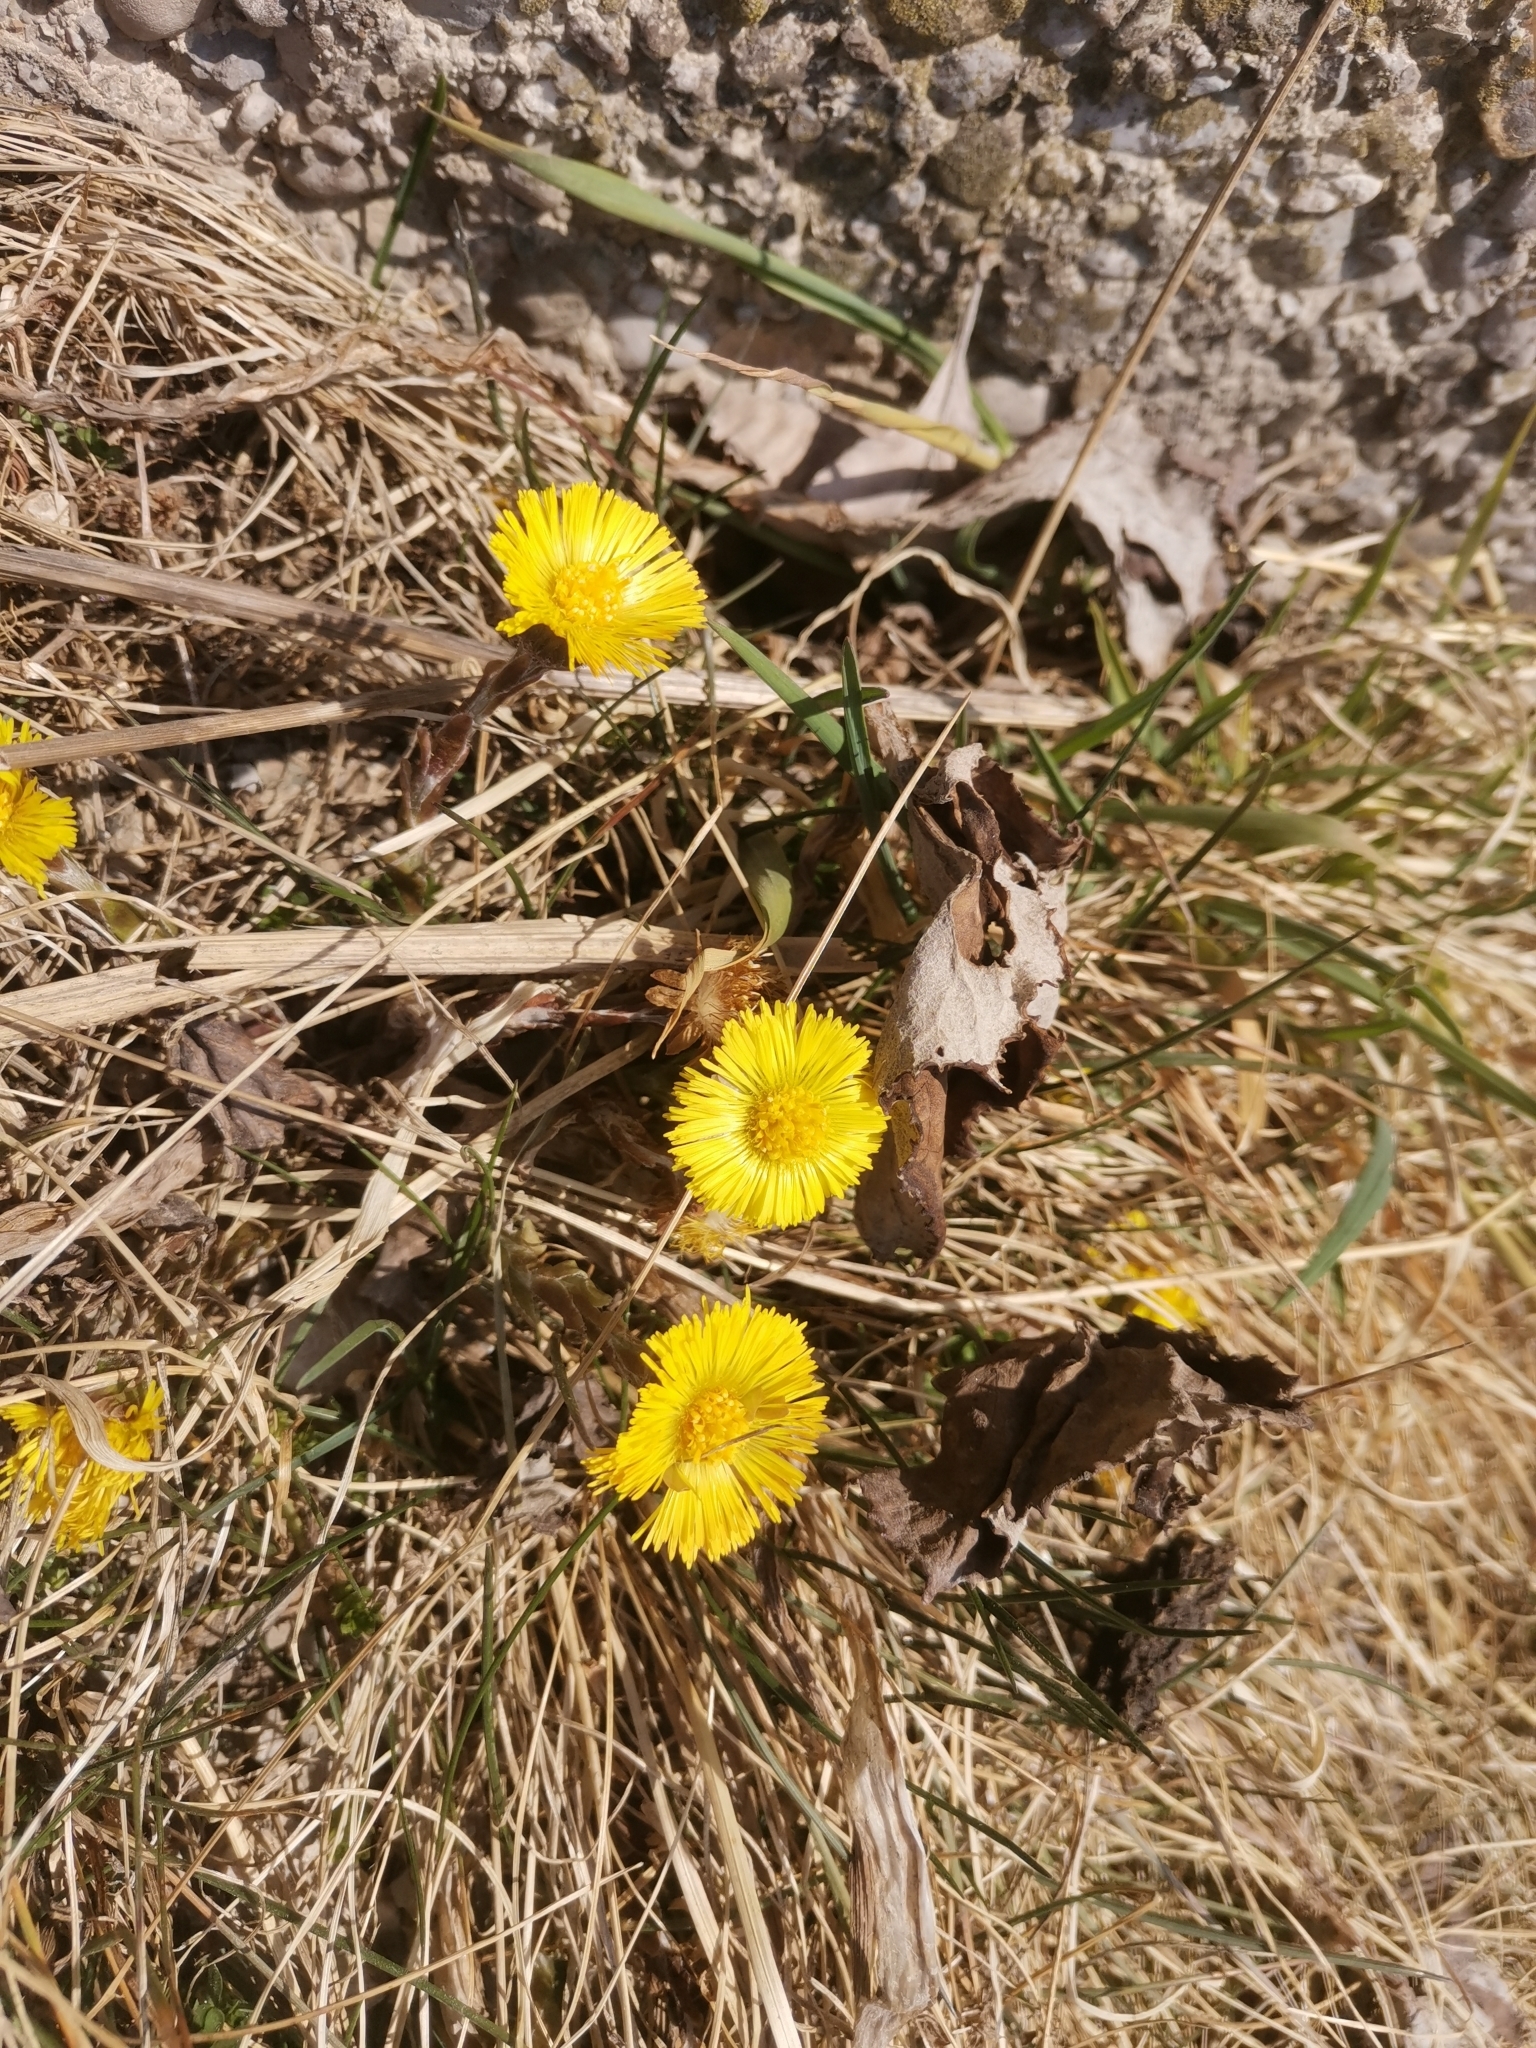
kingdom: Plantae
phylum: Tracheophyta
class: Magnoliopsida
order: Asterales
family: Asteraceae
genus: Tussilago
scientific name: Tussilago farfara
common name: Coltsfoot
